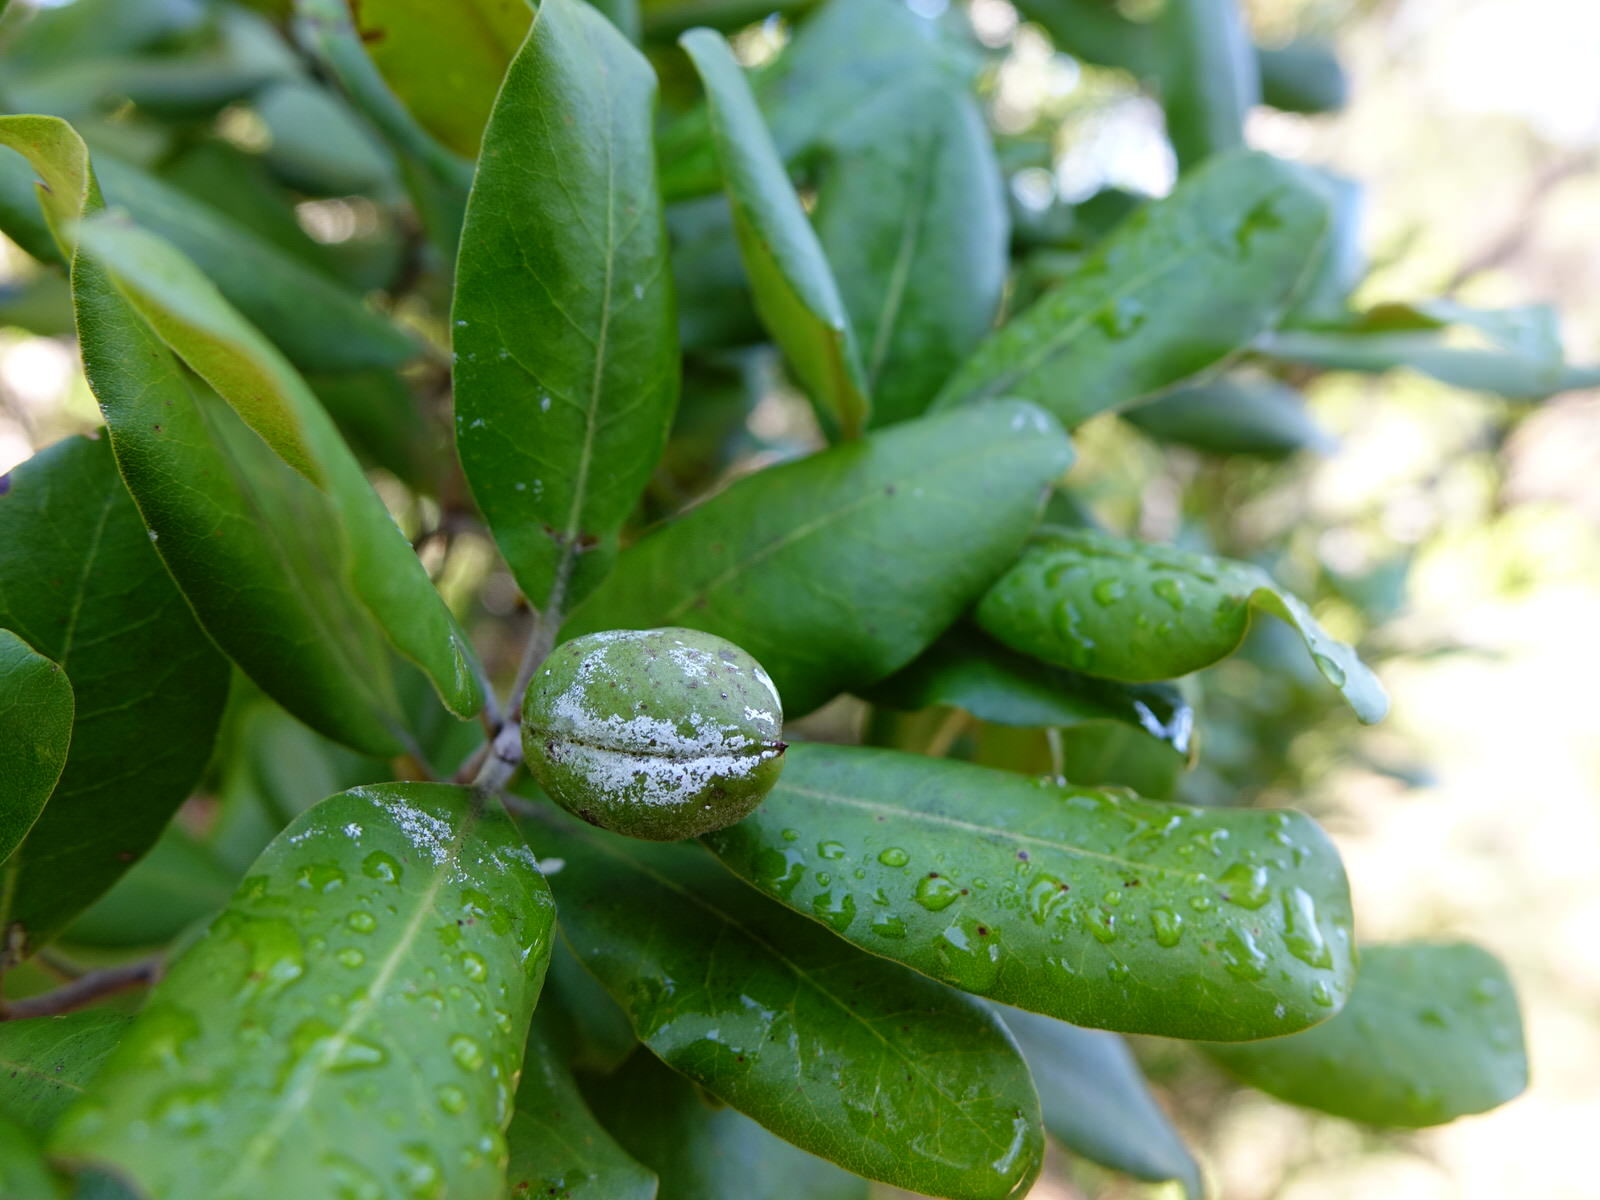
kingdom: Plantae
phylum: Tracheophyta
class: Magnoliopsida
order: Apiales
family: Pittosporaceae
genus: Pittosporum
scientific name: Pittosporum ellipticum
